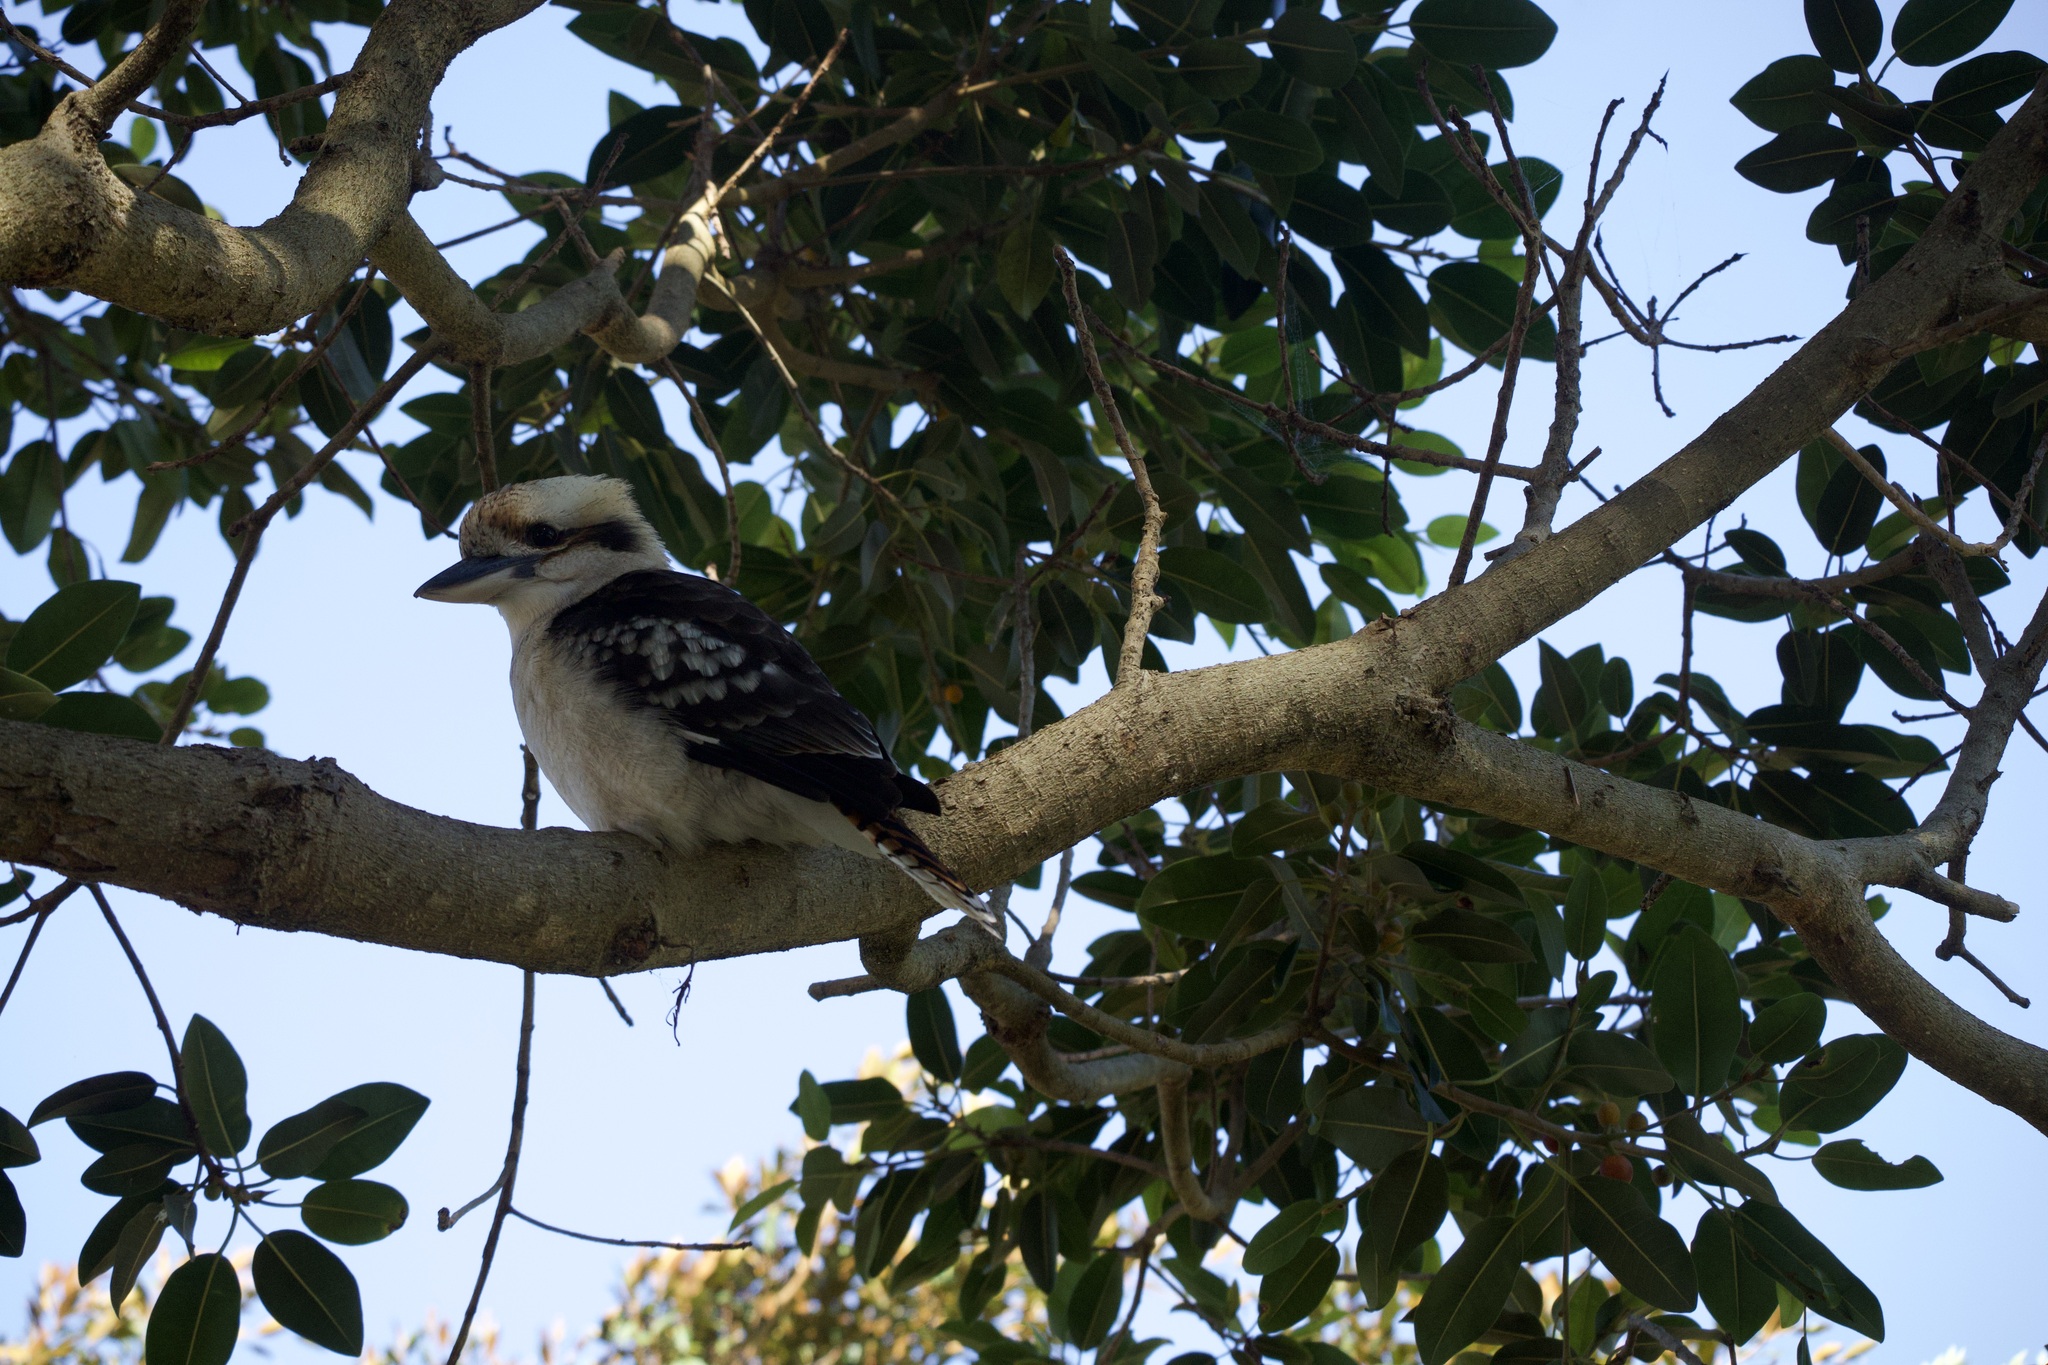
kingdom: Animalia
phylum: Chordata
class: Aves
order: Coraciiformes
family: Alcedinidae
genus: Dacelo
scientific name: Dacelo novaeguineae
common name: Laughing kookaburra
